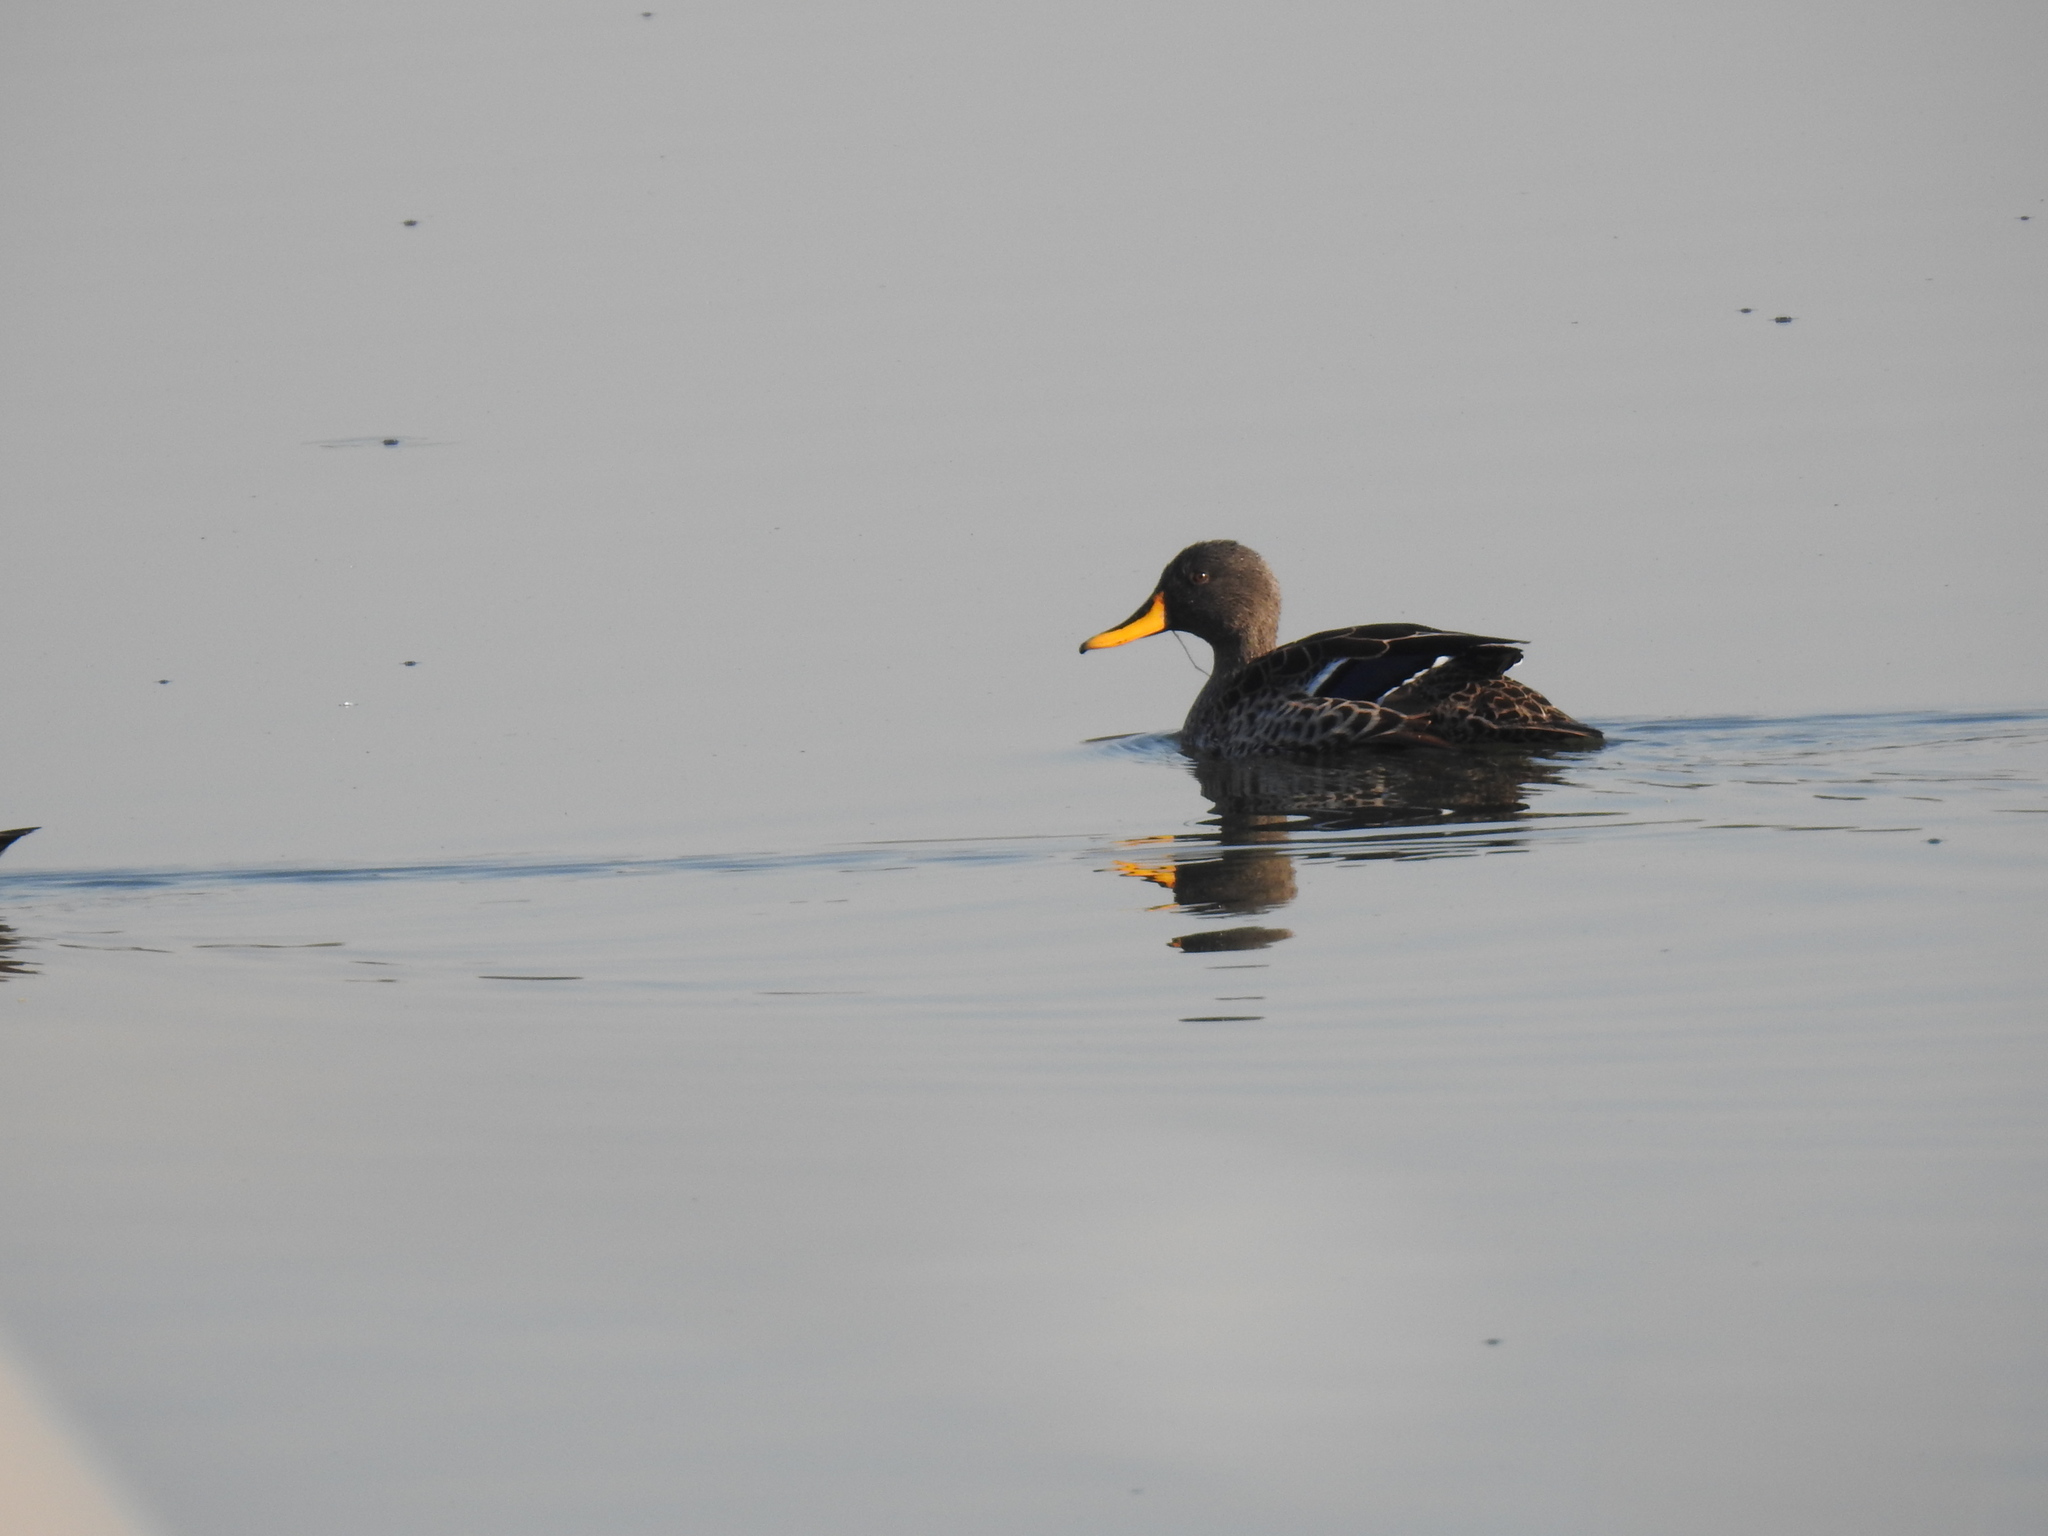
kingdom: Animalia
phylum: Chordata
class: Aves
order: Anseriformes
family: Anatidae
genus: Anas
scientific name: Anas undulata
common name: Yellow-billed duck
